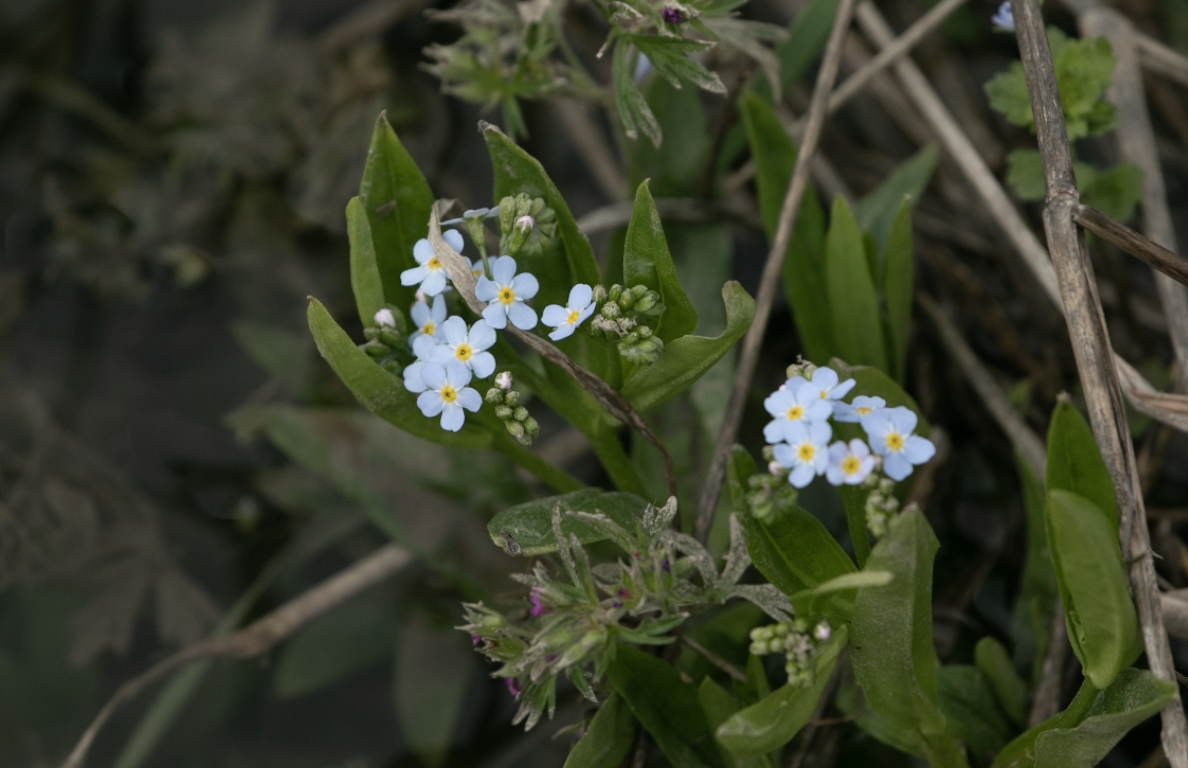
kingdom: Plantae
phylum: Tracheophyta
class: Magnoliopsida
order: Boraginales
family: Boraginaceae
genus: Myosotis
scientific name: Myosotis scorpioides
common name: Water forget-me-not
